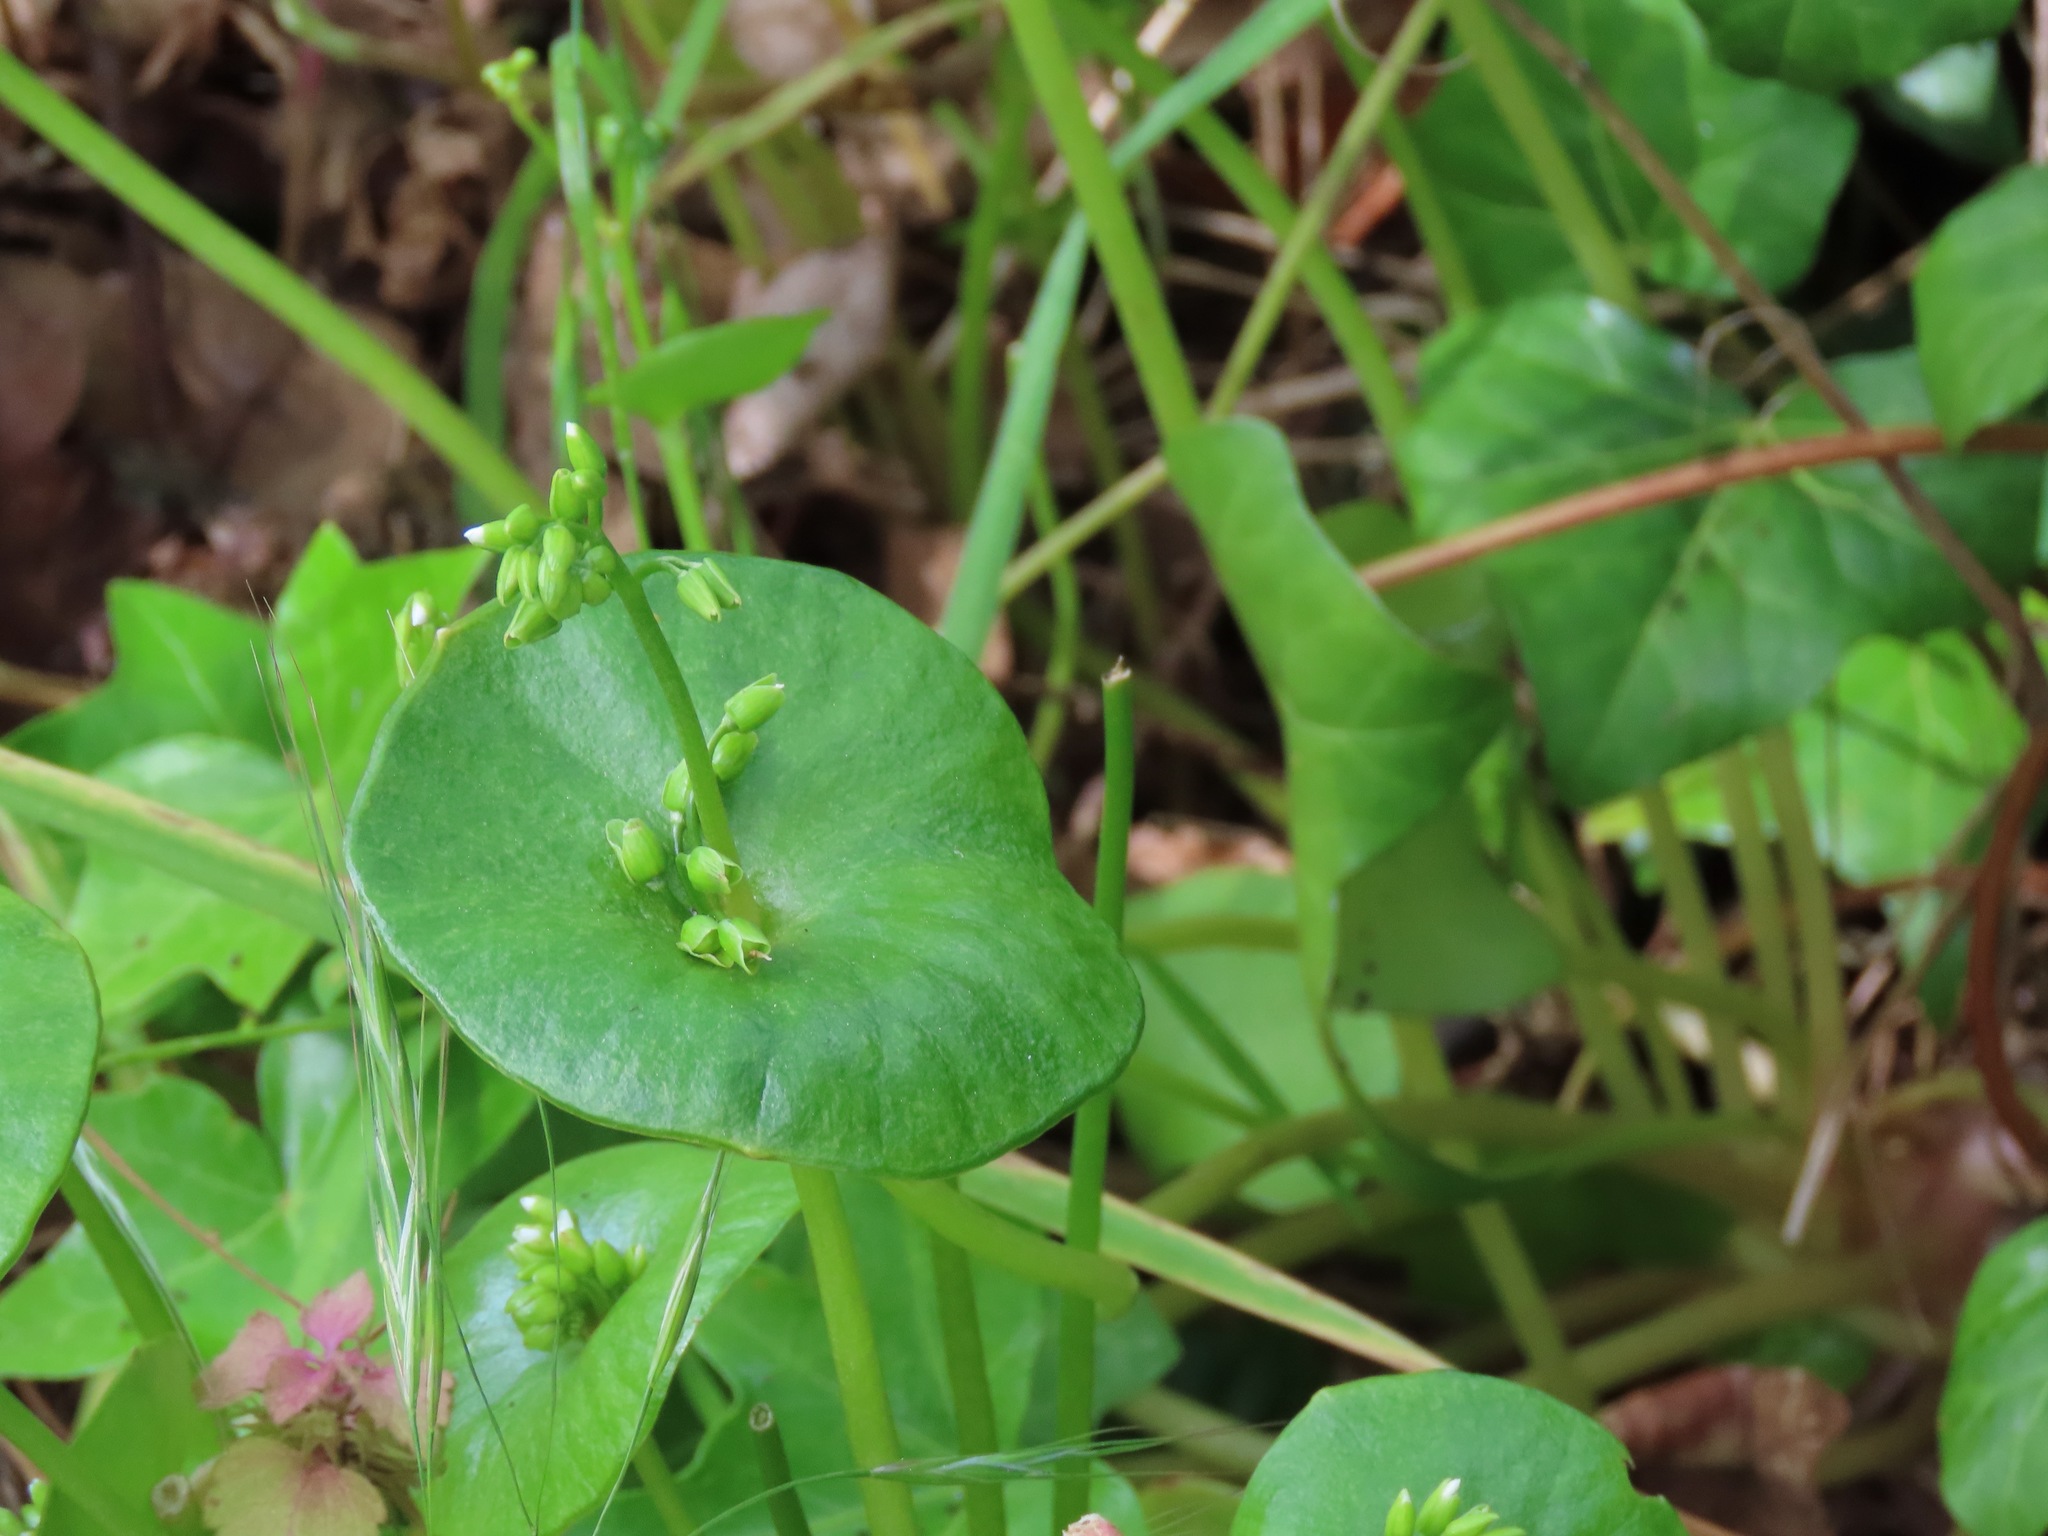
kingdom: Plantae
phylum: Tracheophyta
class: Magnoliopsida
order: Caryophyllales
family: Montiaceae
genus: Claytonia
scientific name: Claytonia perfoliata
